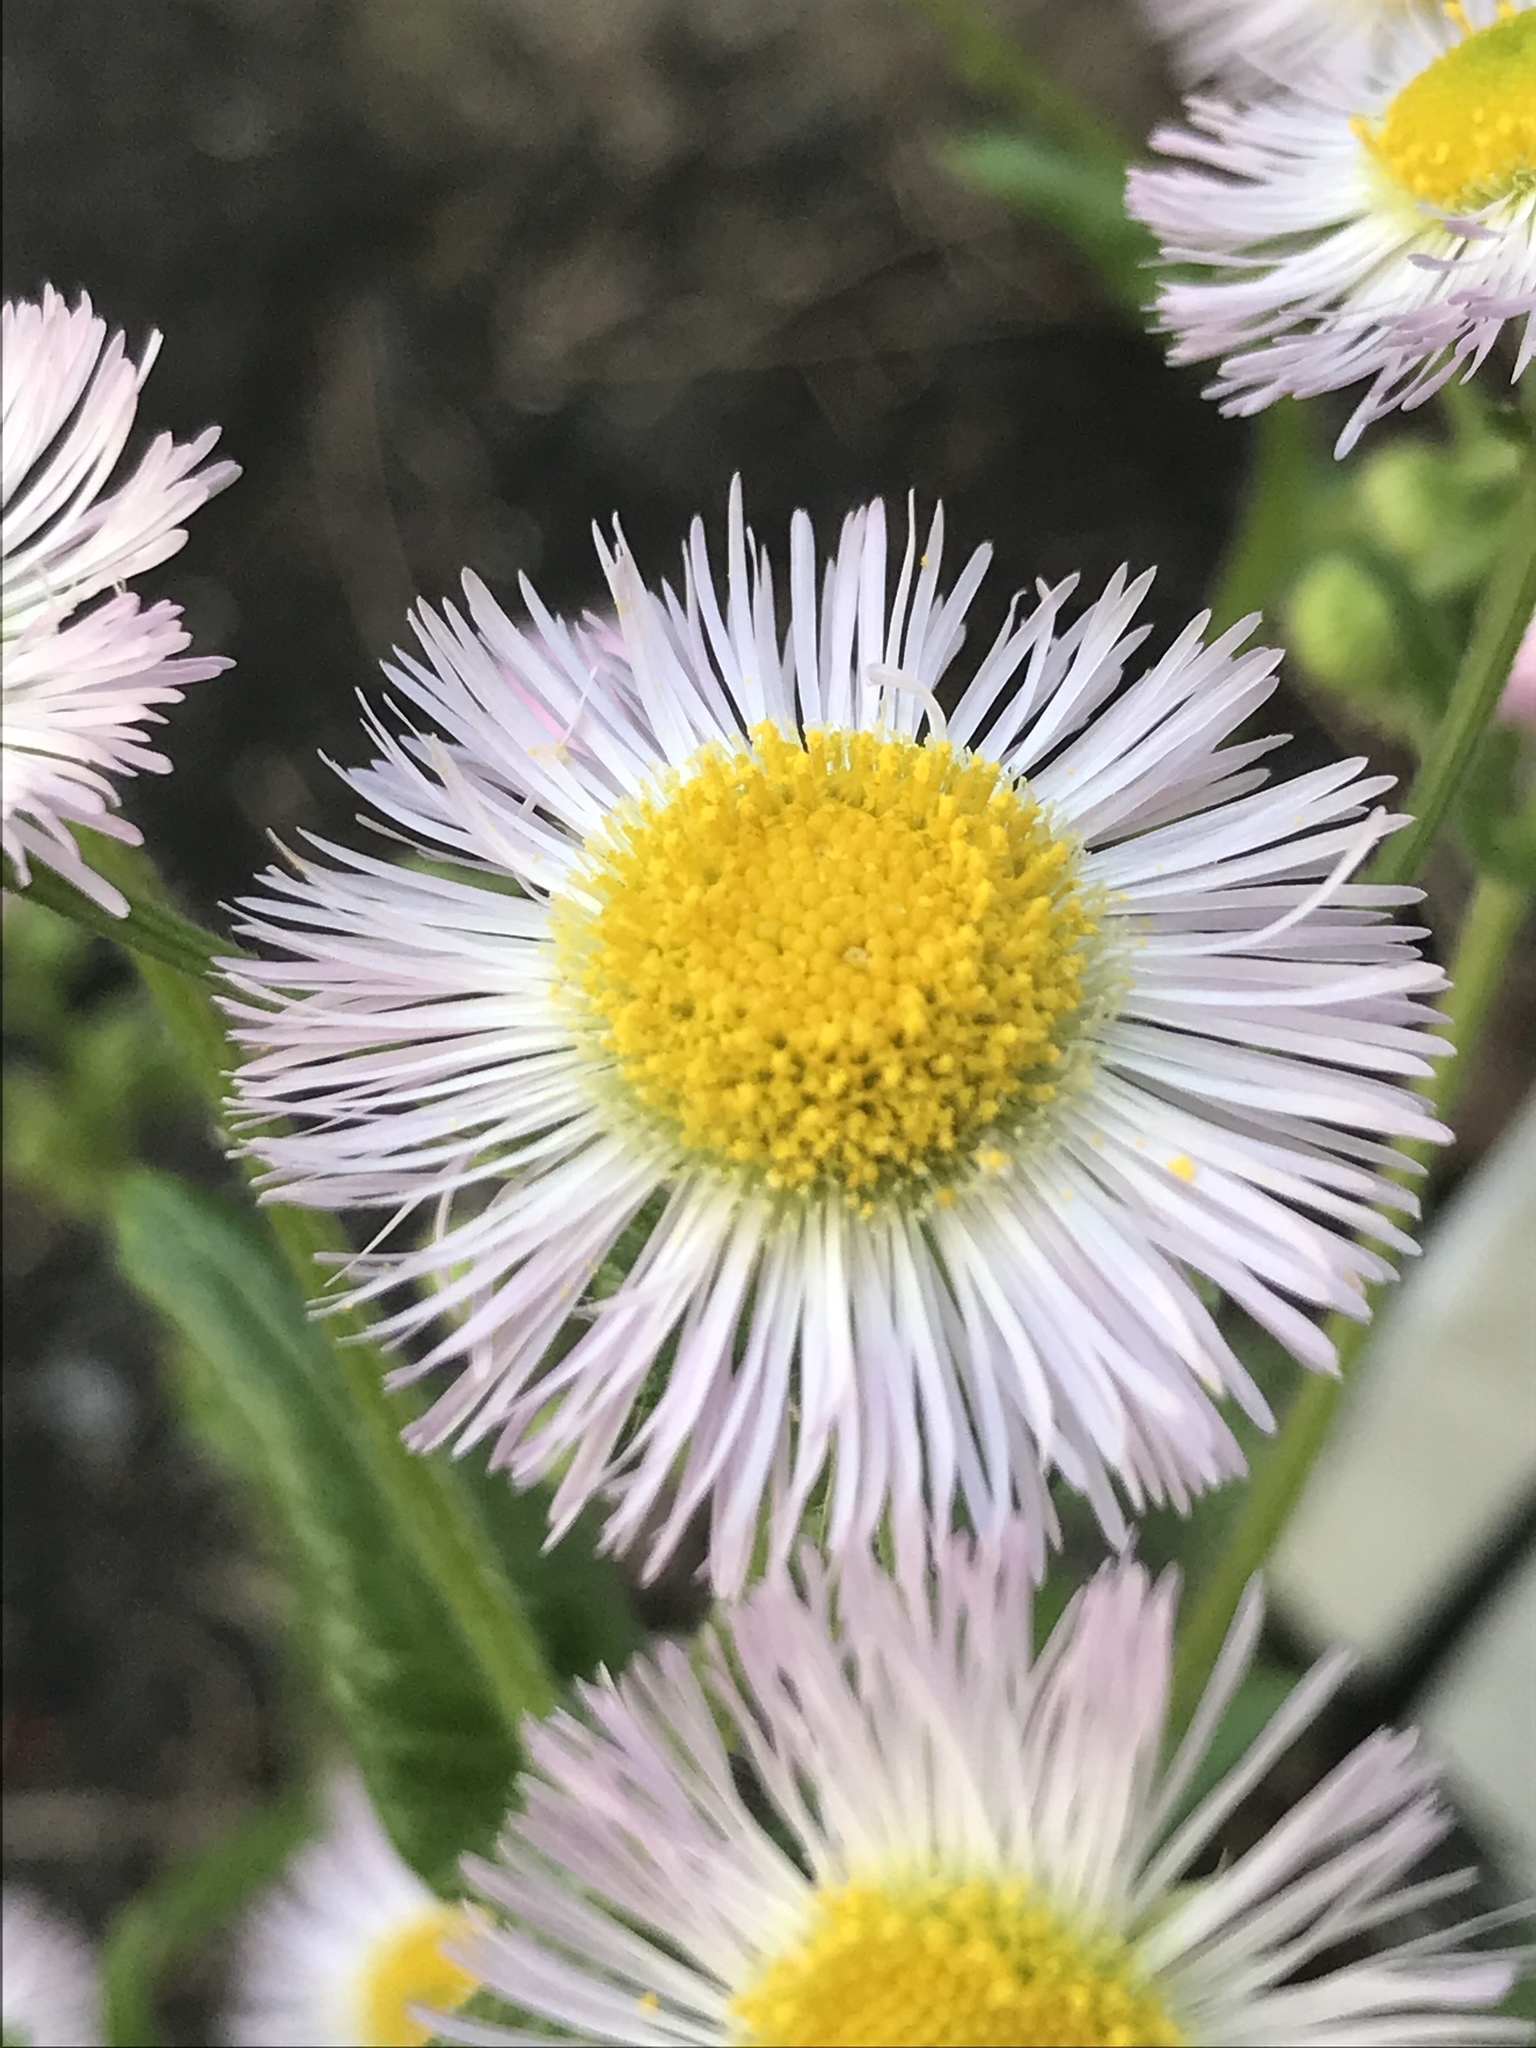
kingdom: Plantae
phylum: Tracheophyta
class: Magnoliopsida
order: Asterales
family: Asteraceae
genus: Erigeron
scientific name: Erigeron philadelphicus
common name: Robin's-plantain
